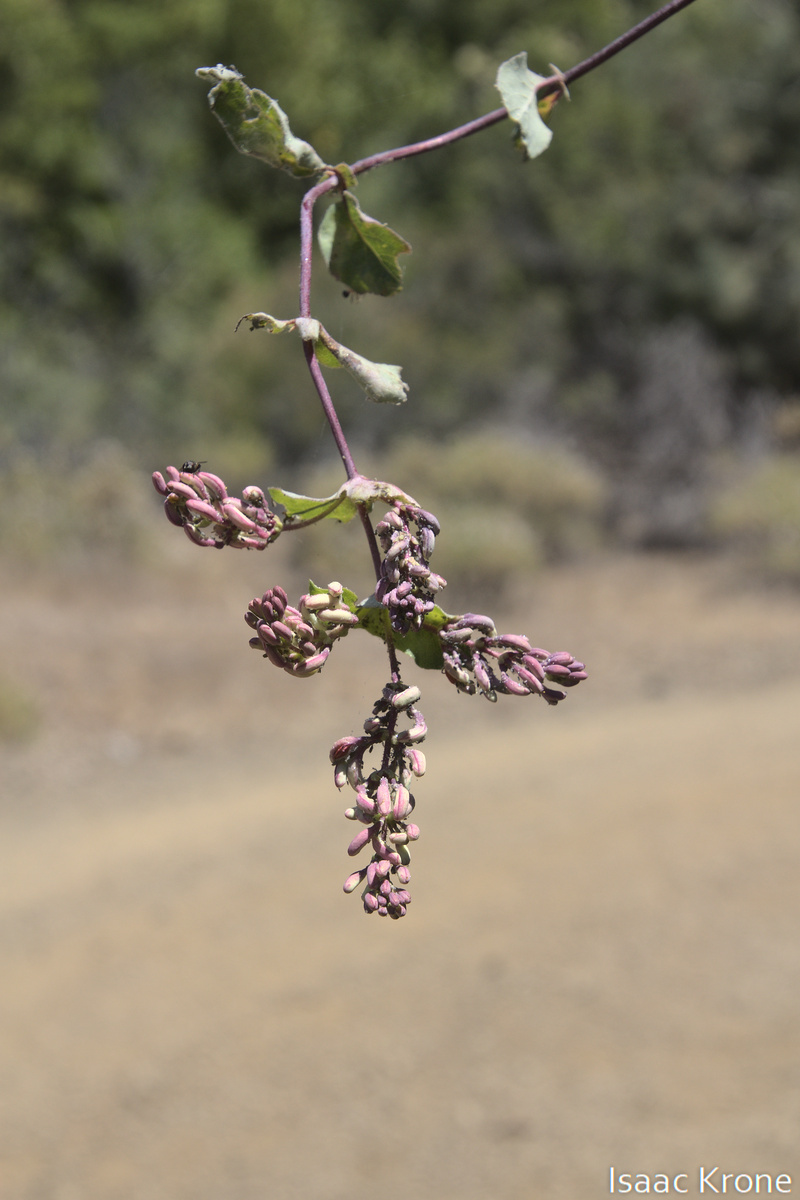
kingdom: Plantae
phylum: Tracheophyta
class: Magnoliopsida
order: Dipsacales
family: Caprifoliaceae
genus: Lonicera
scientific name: Lonicera hispidula
